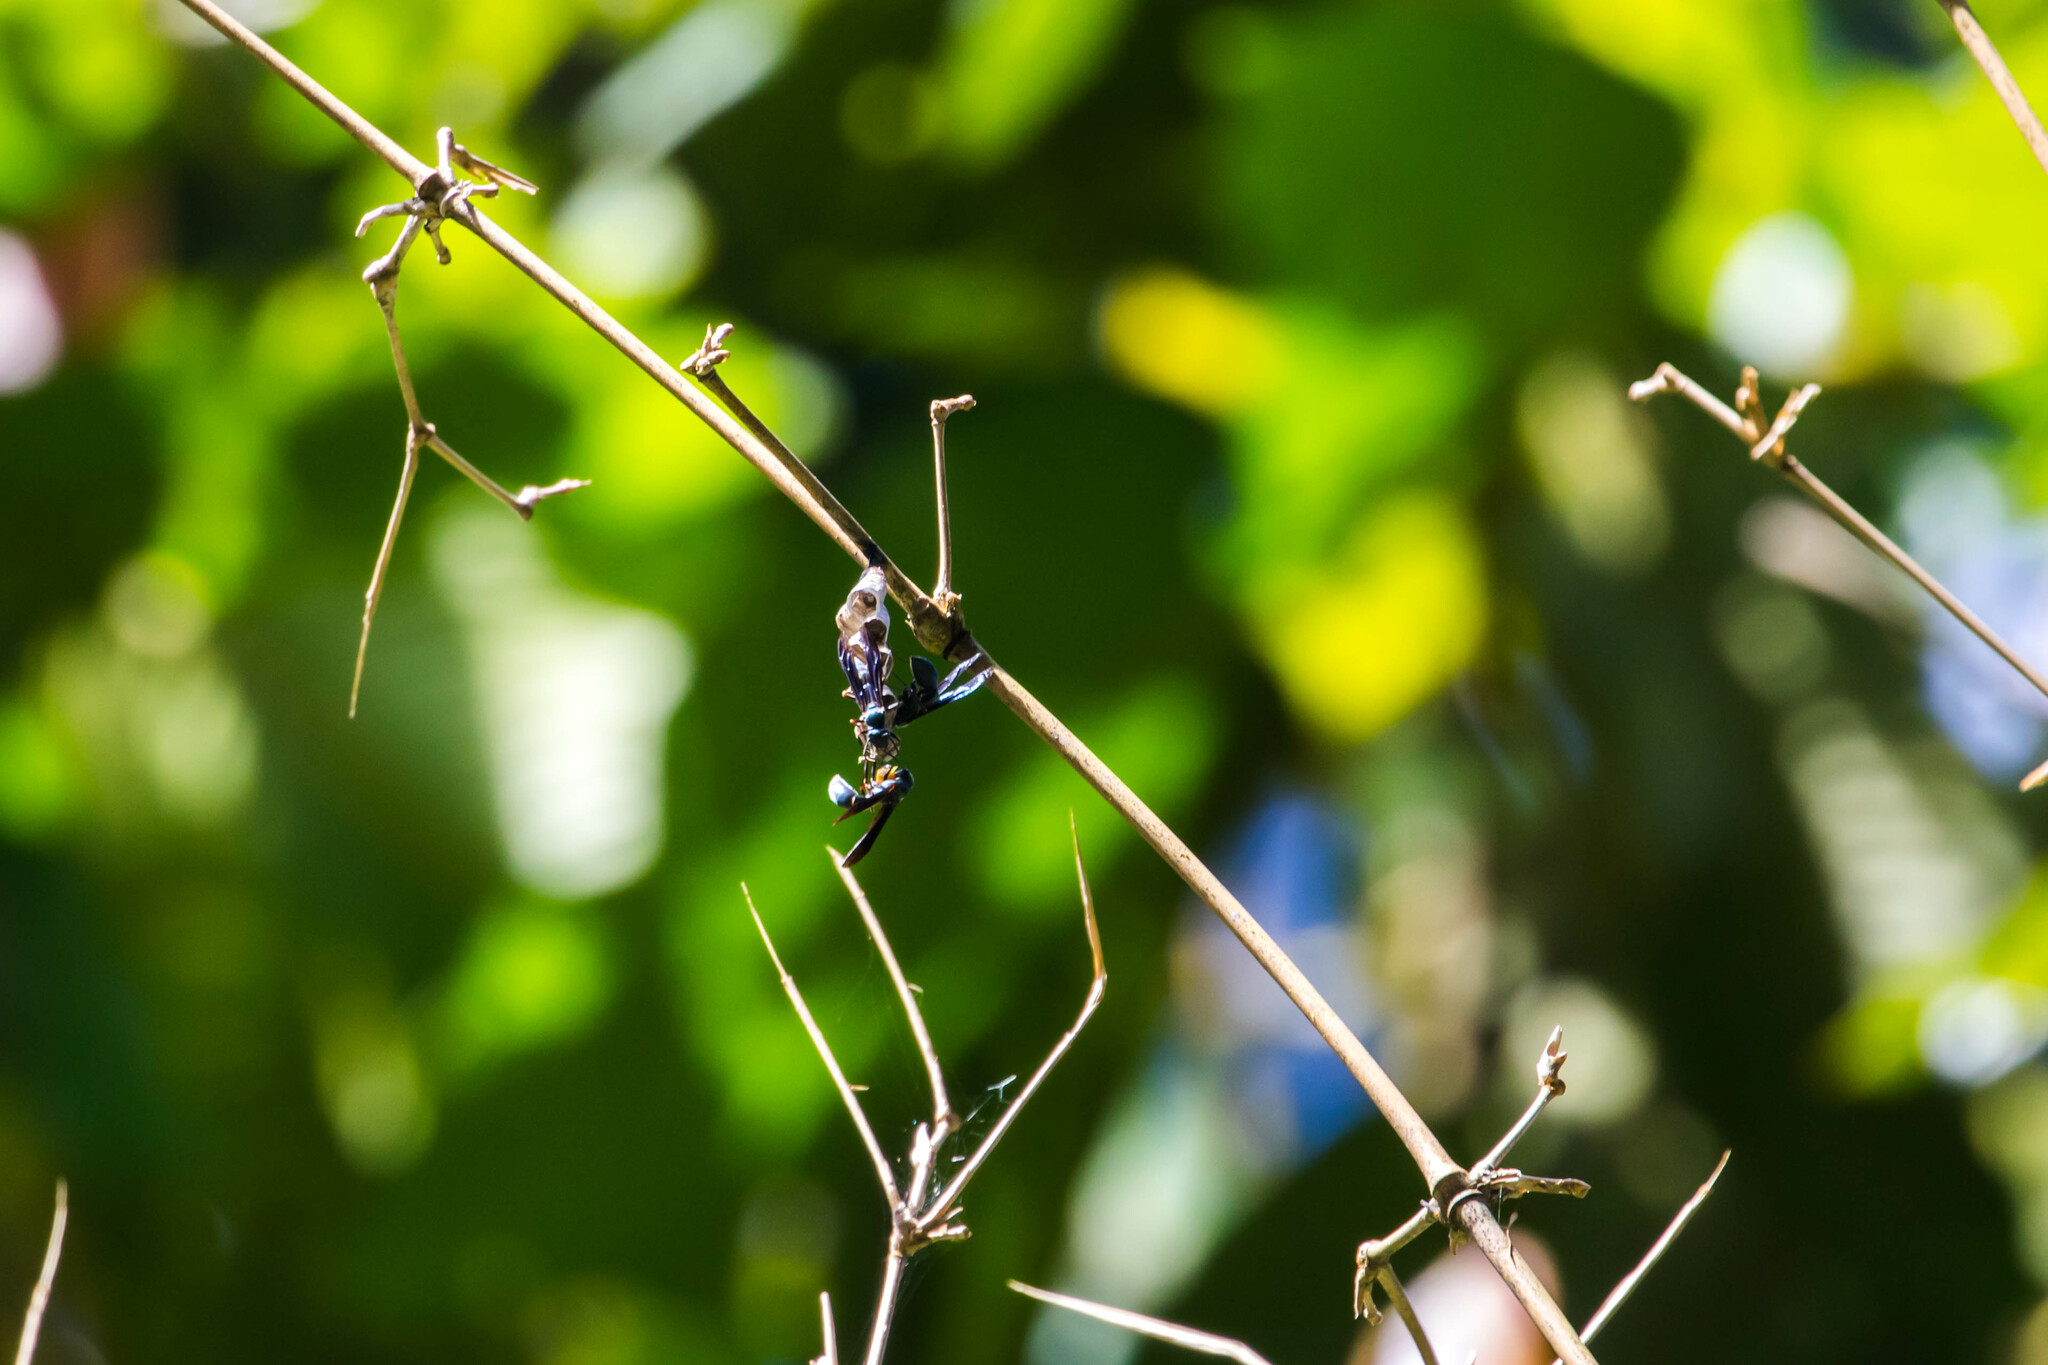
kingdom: Animalia
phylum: Arthropoda
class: Insecta
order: Hymenoptera
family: Eumenidae
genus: Polistes
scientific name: Polistes goeldii
